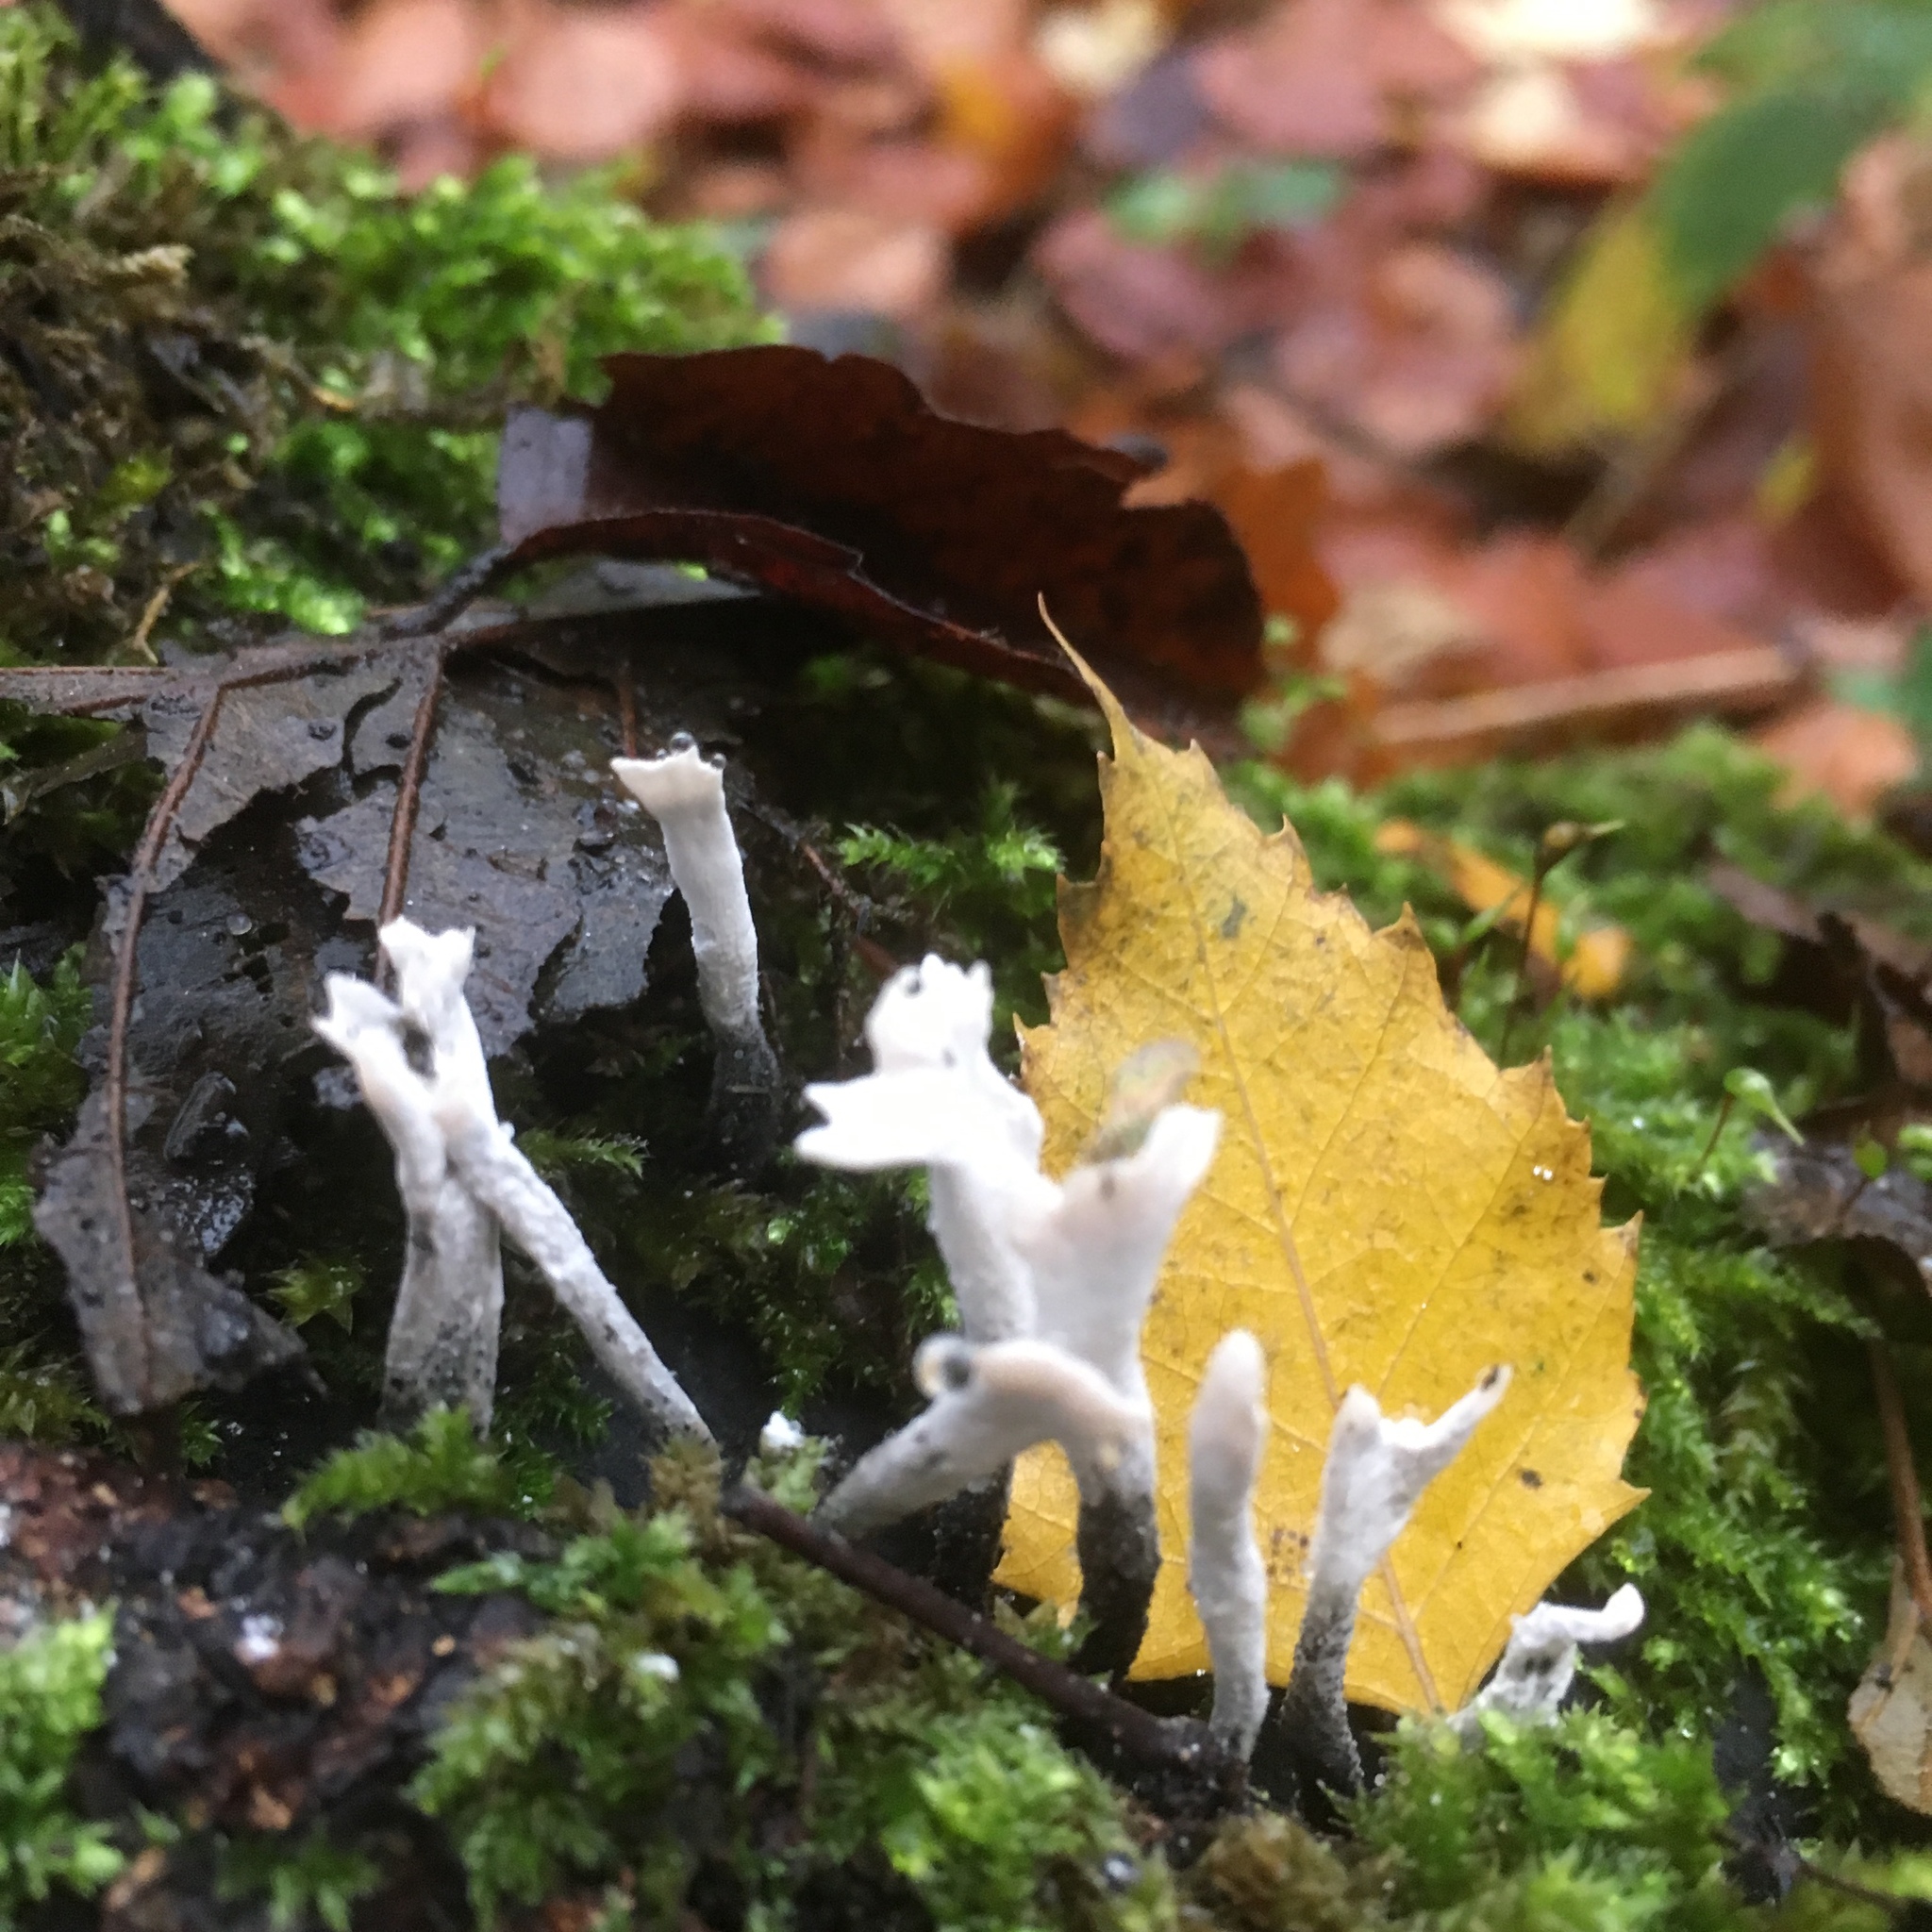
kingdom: Fungi
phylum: Ascomycota
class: Sordariomycetes
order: Xylariales
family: Xylariaceae
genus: Xylaria
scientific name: Xylaria hypoxylon
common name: Candle-snuff fungus
